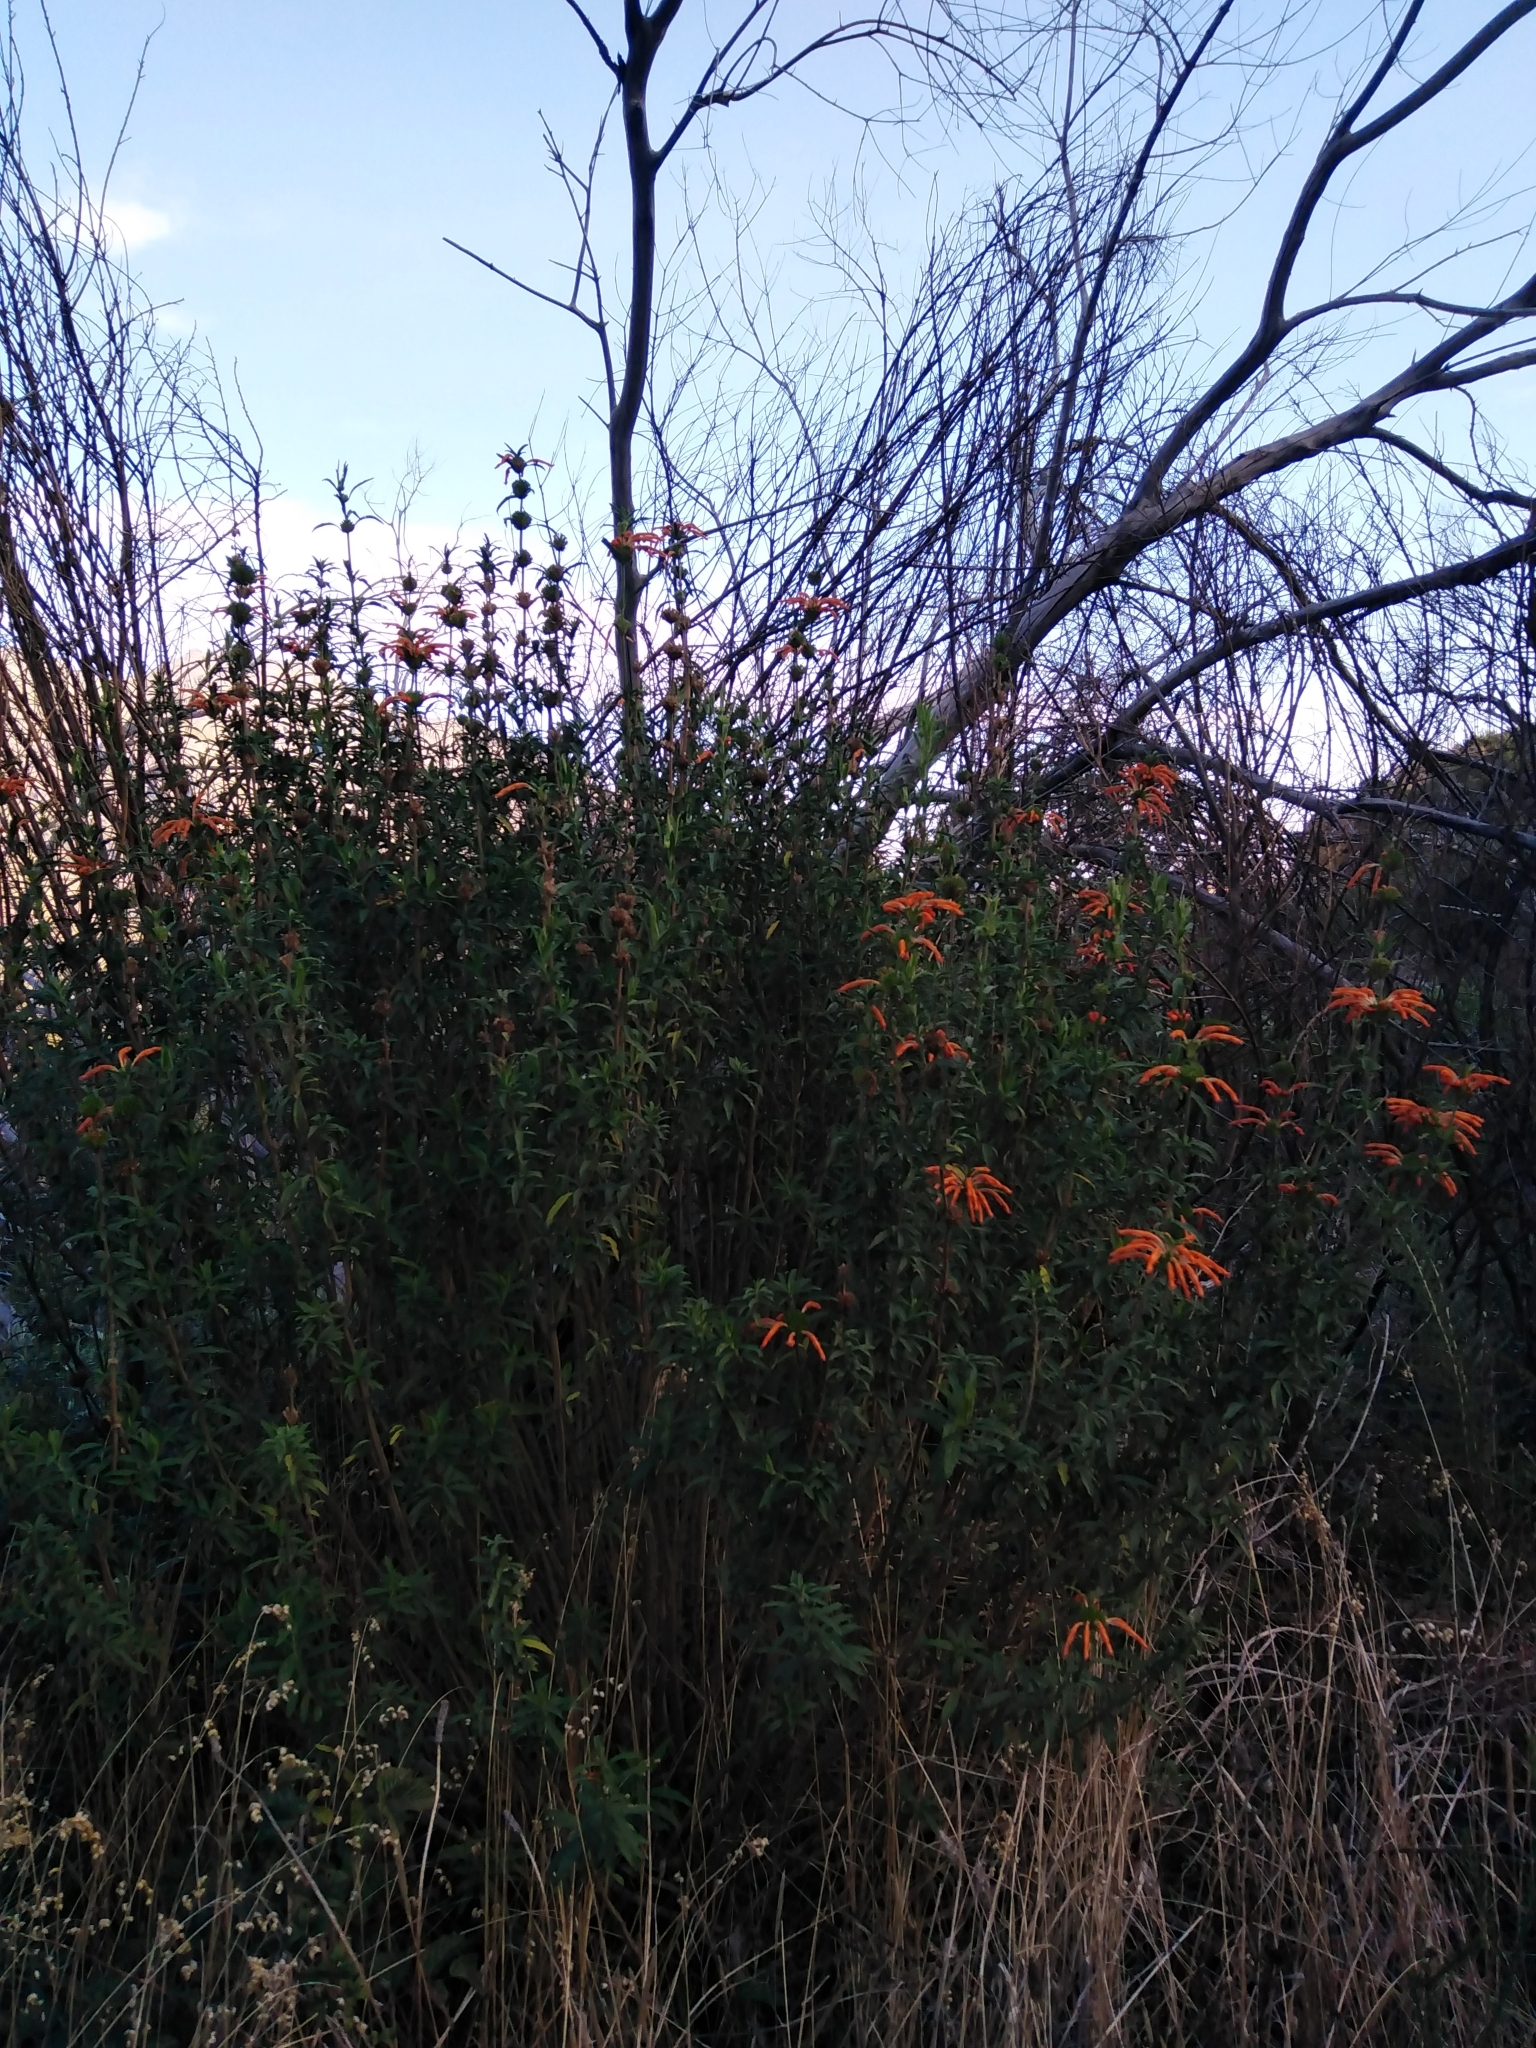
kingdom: Plantae
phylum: Tracheophyta
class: Magnoliopsida
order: Lamiales
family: Lamiaceae
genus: Leonotis
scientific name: Leonotis leonurus
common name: Lion's ear
